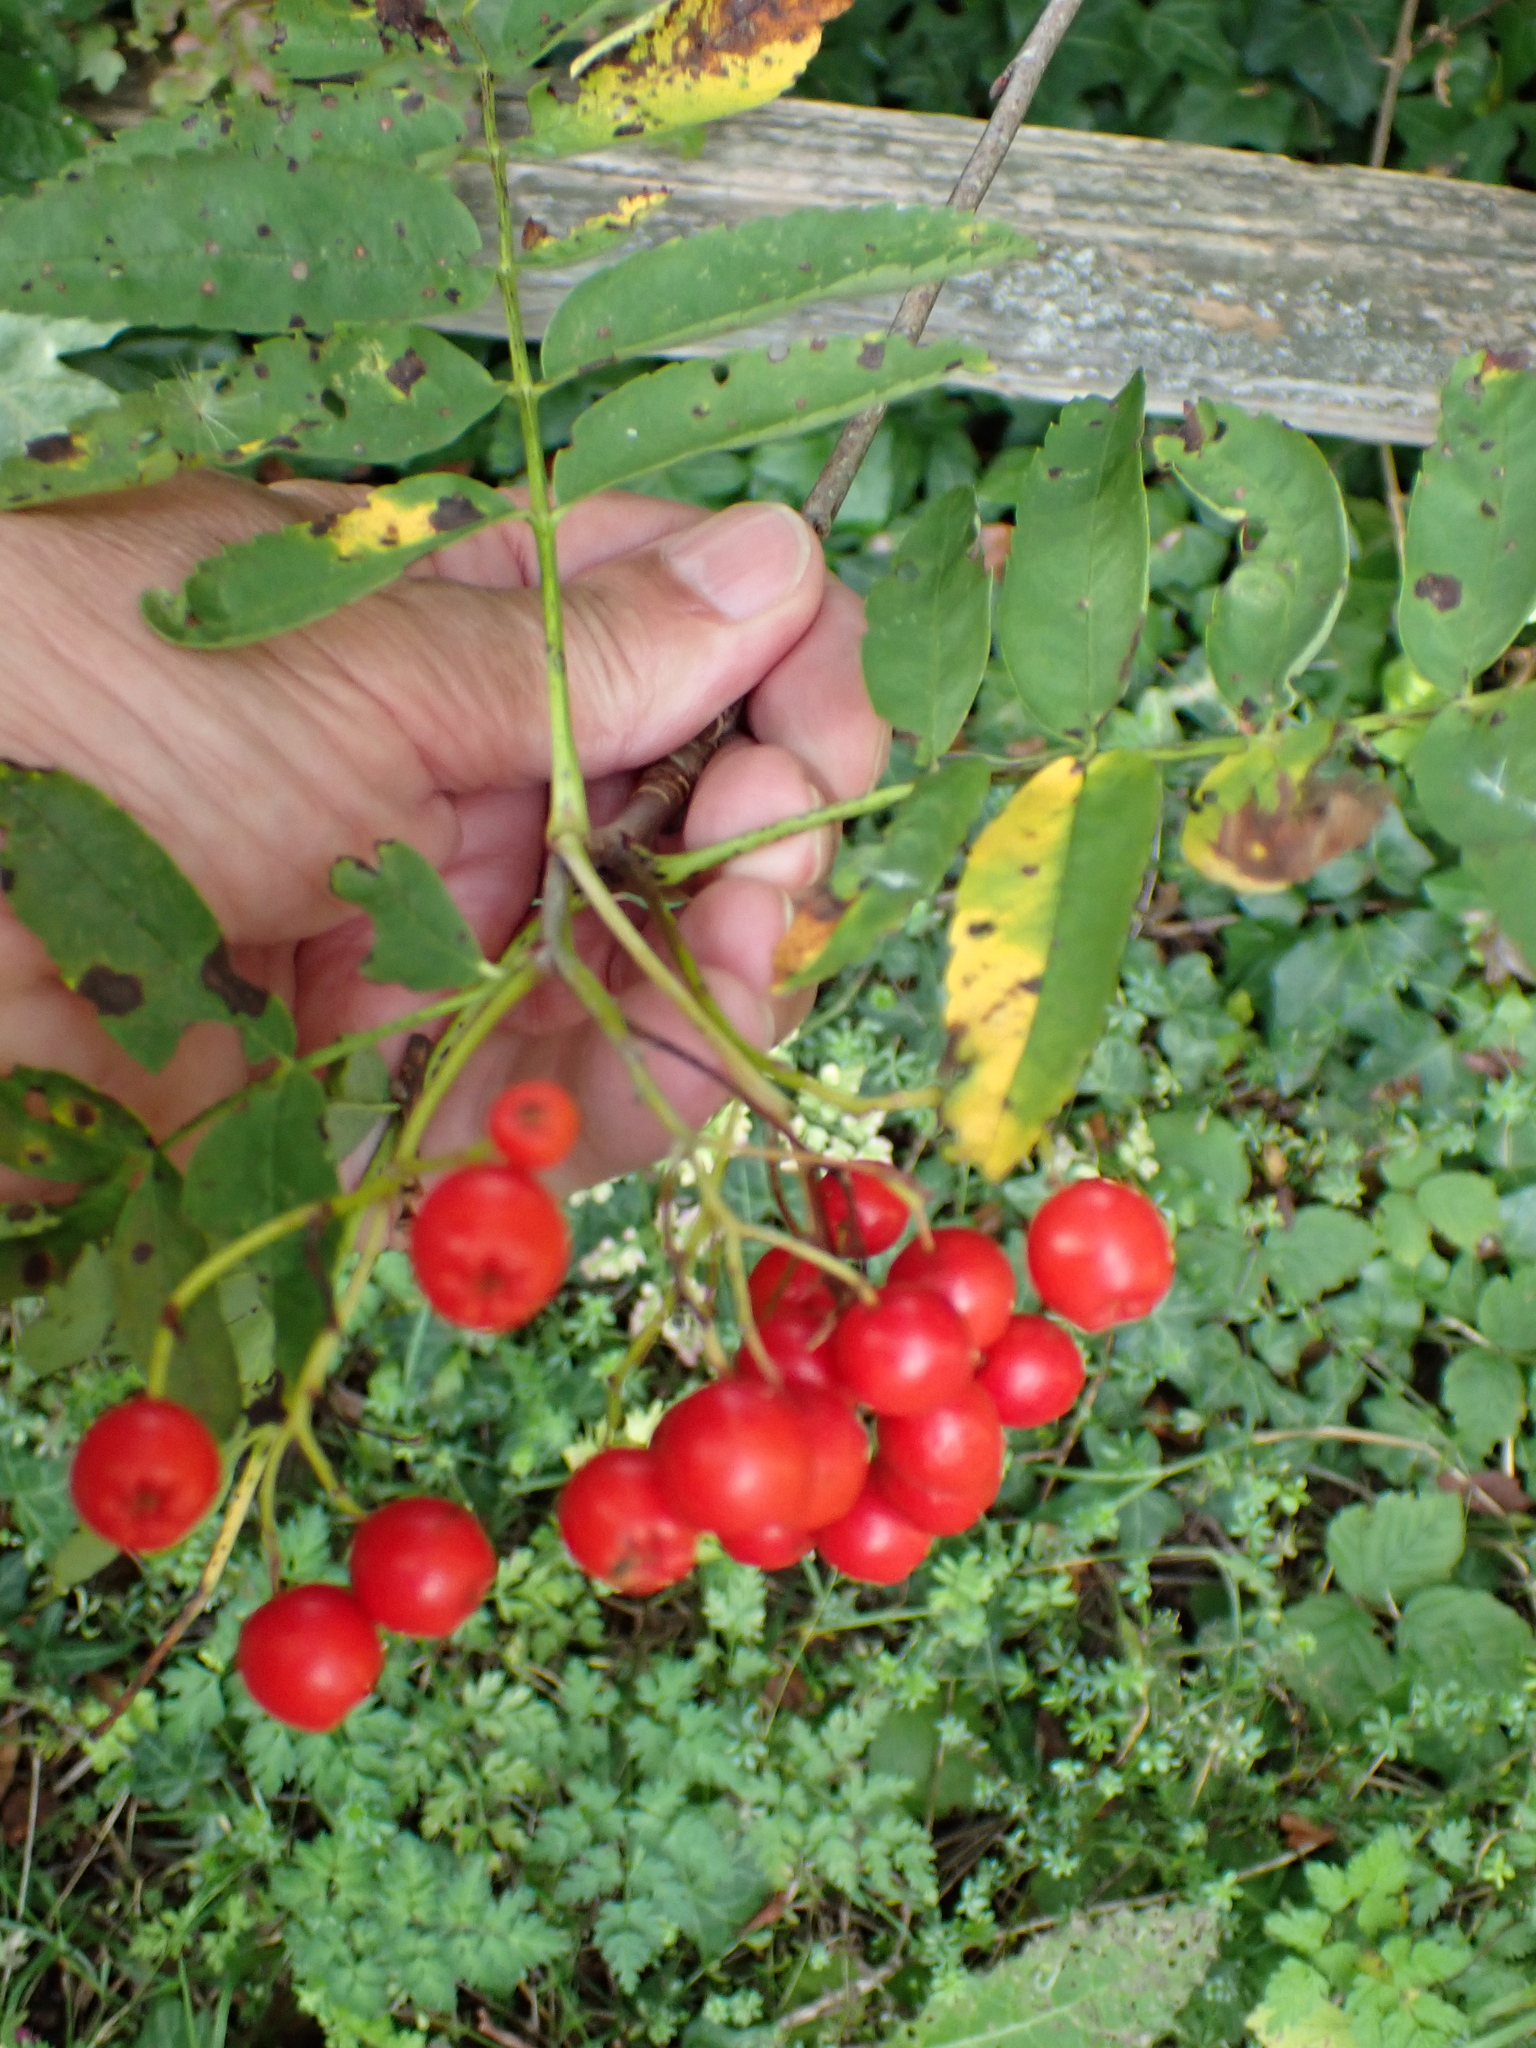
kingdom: Plantae
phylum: Tracheophyta
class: Magnoliopsida
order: Rosales
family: Rosaceae
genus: Sorbus
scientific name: Sorbus aucuparia
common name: Rowan
